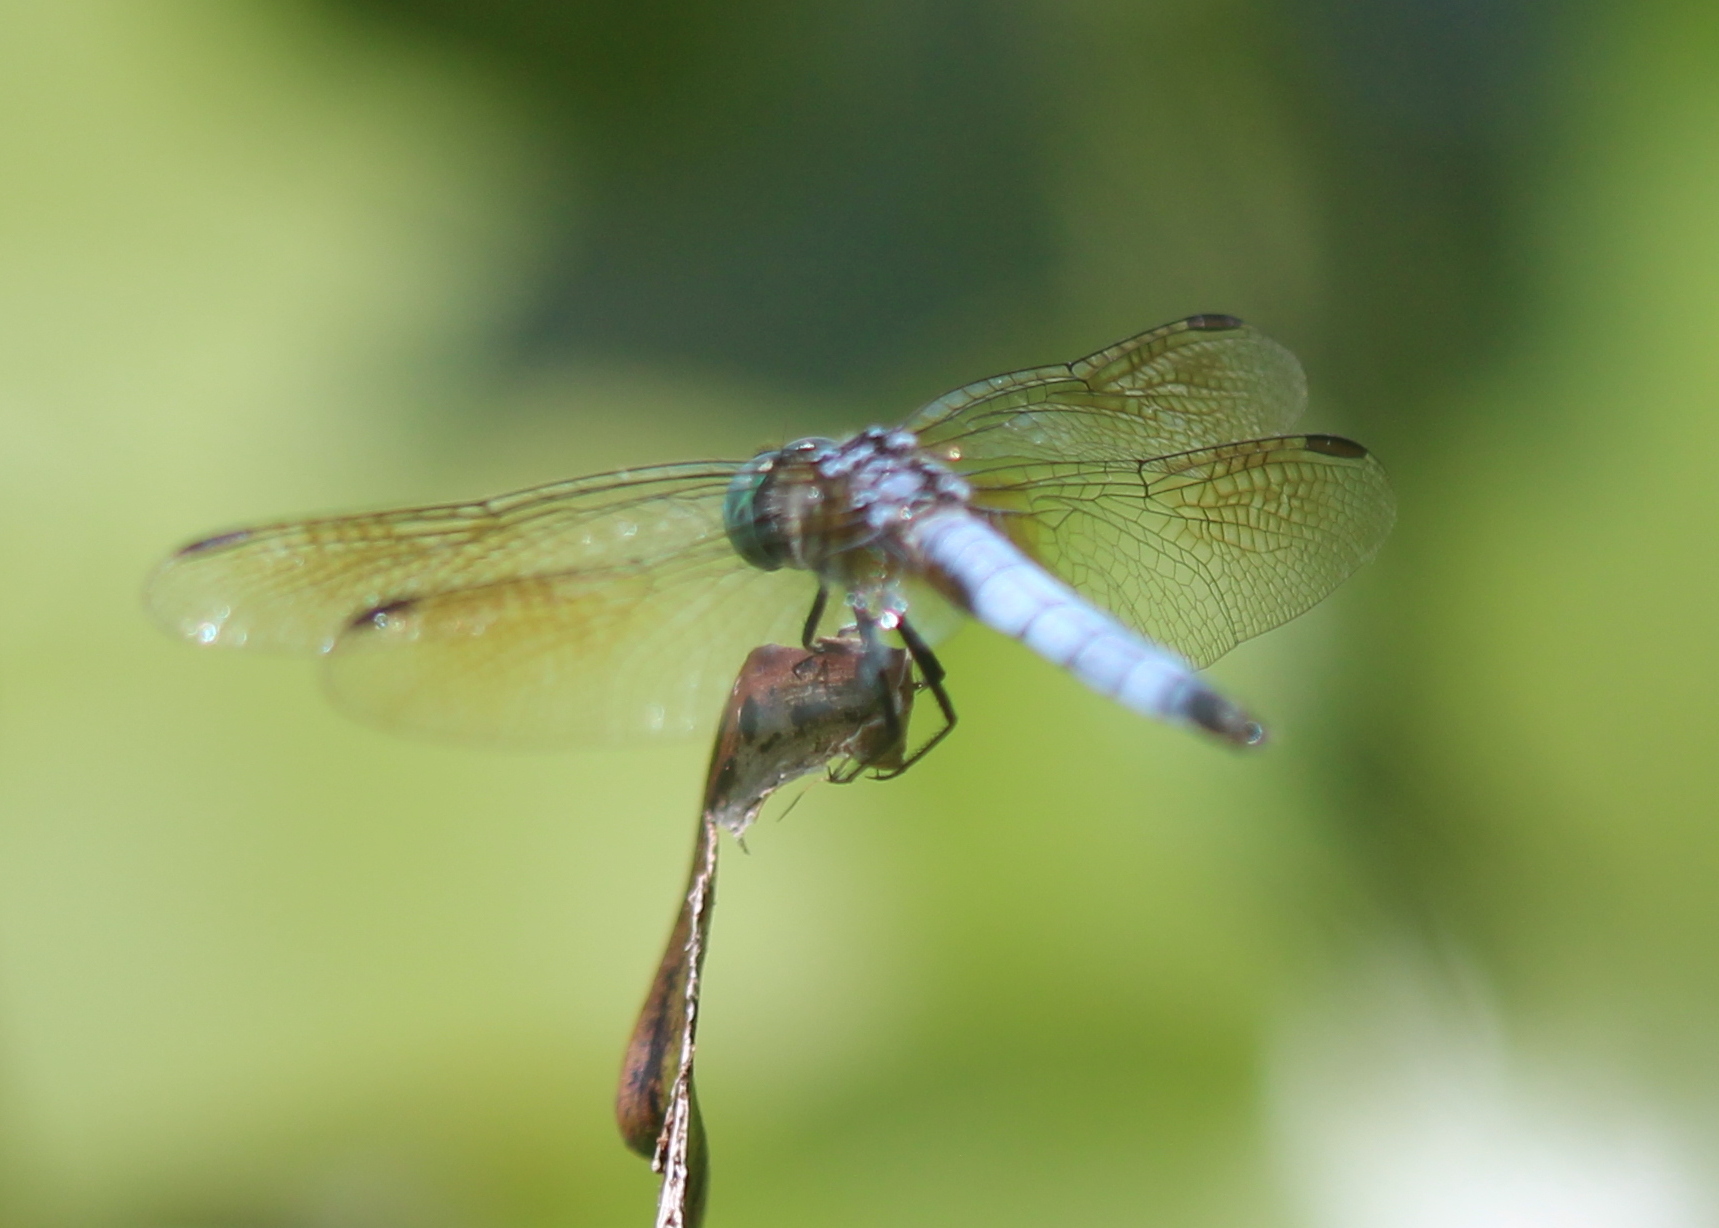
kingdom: Animalia
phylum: Arthropoda
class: Insecta
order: Odonata
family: Libellulidae
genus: Pachydiplax
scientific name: Pachydiplax longipennis
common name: Blue dasher
